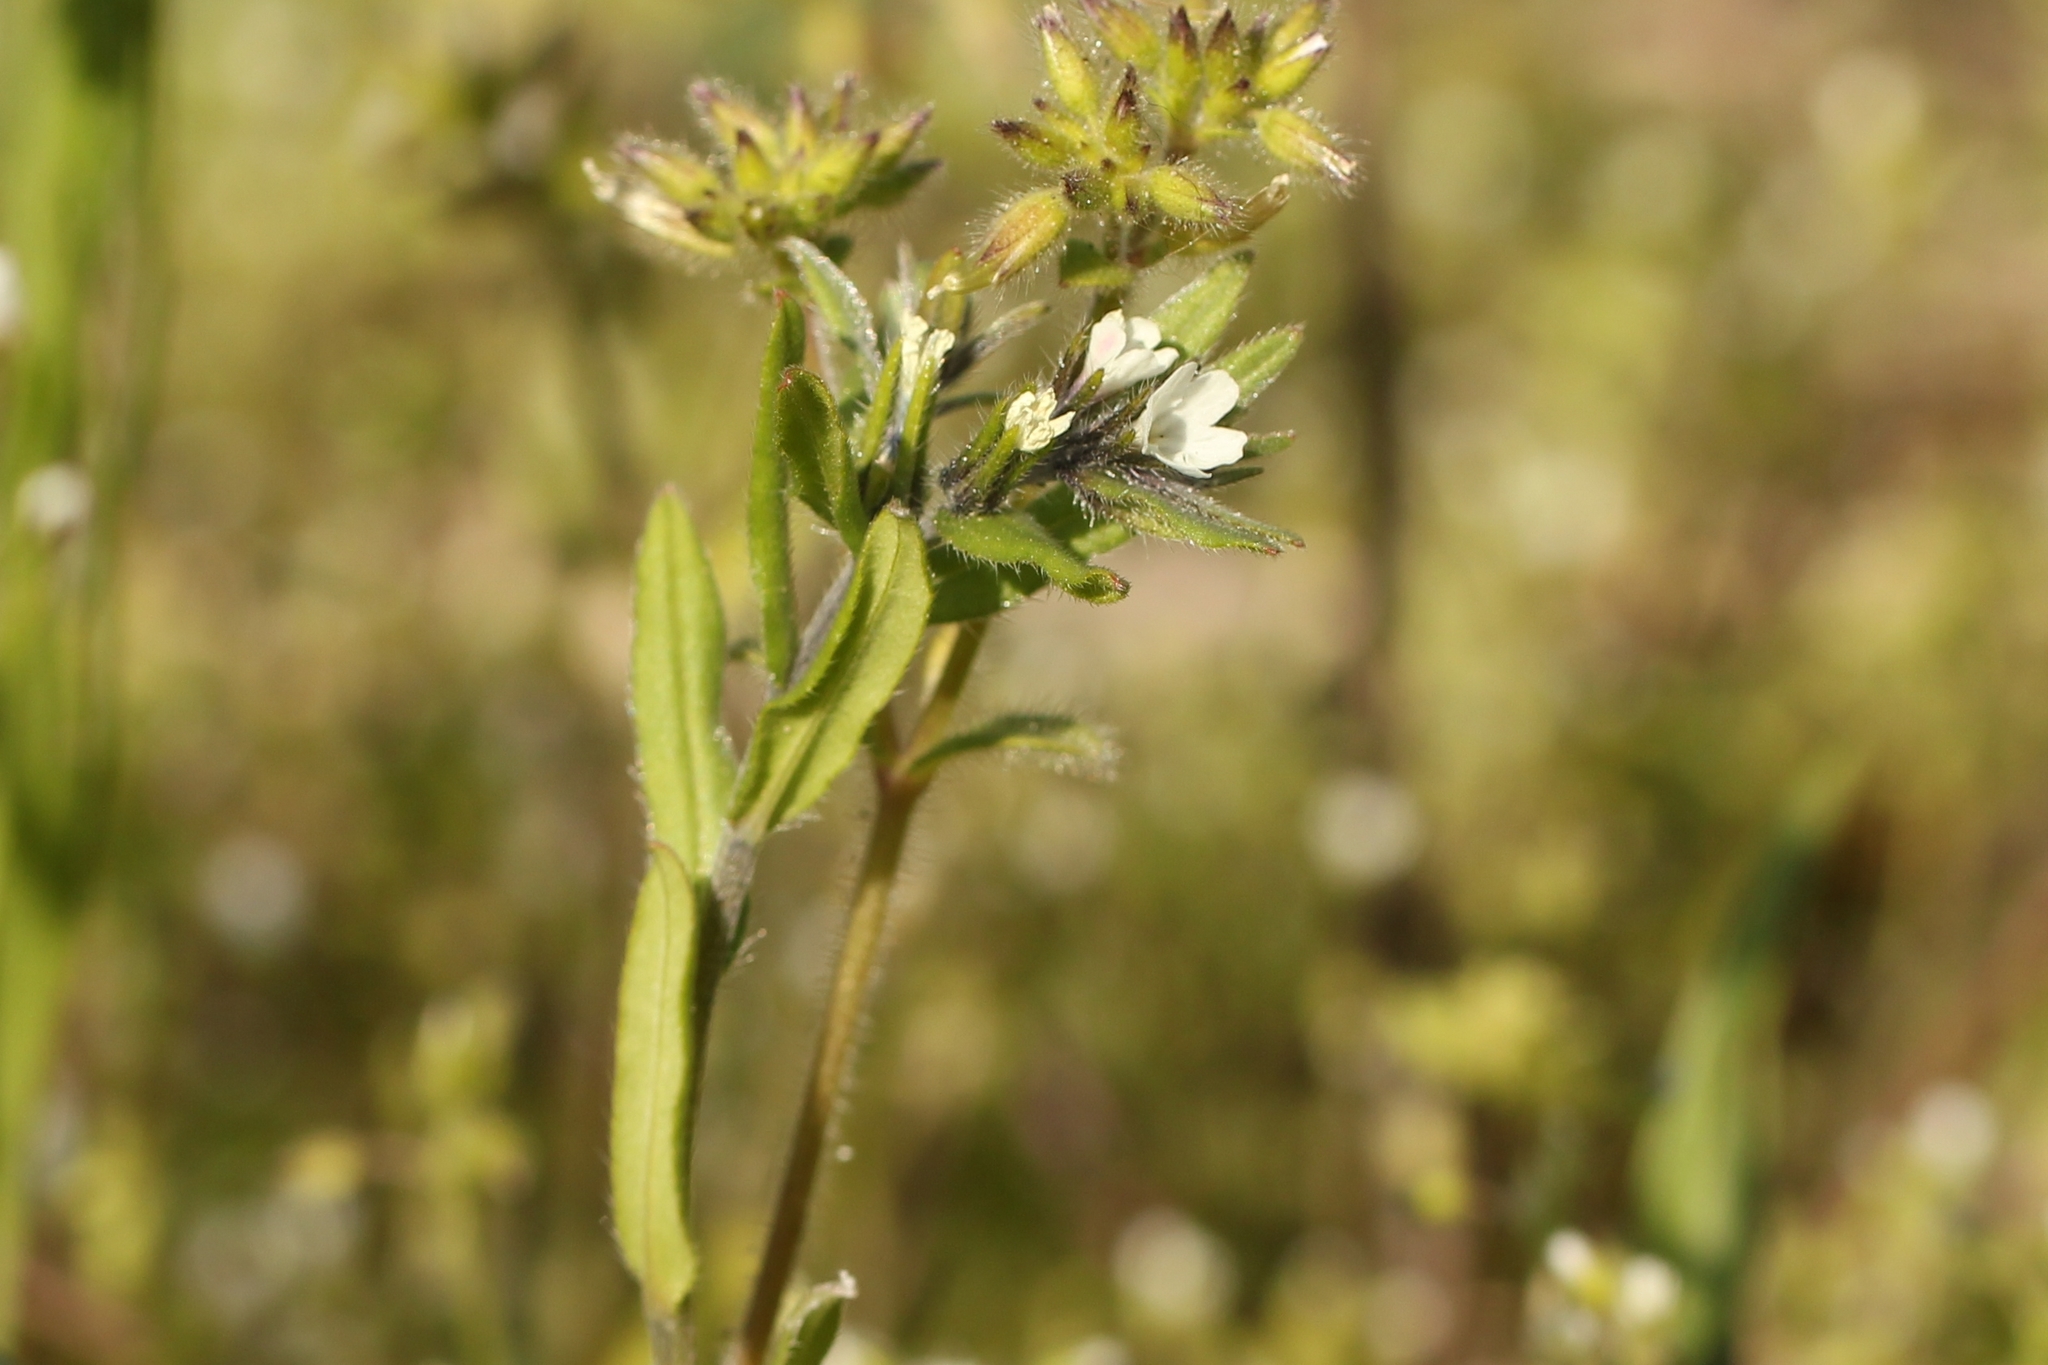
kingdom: Plantae
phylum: Tracheophyta
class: Magnoliopsida
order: Boraginales
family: Boraginaceae
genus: Buglossoides
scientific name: Buglossoides arvensis
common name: Corn gromwell
